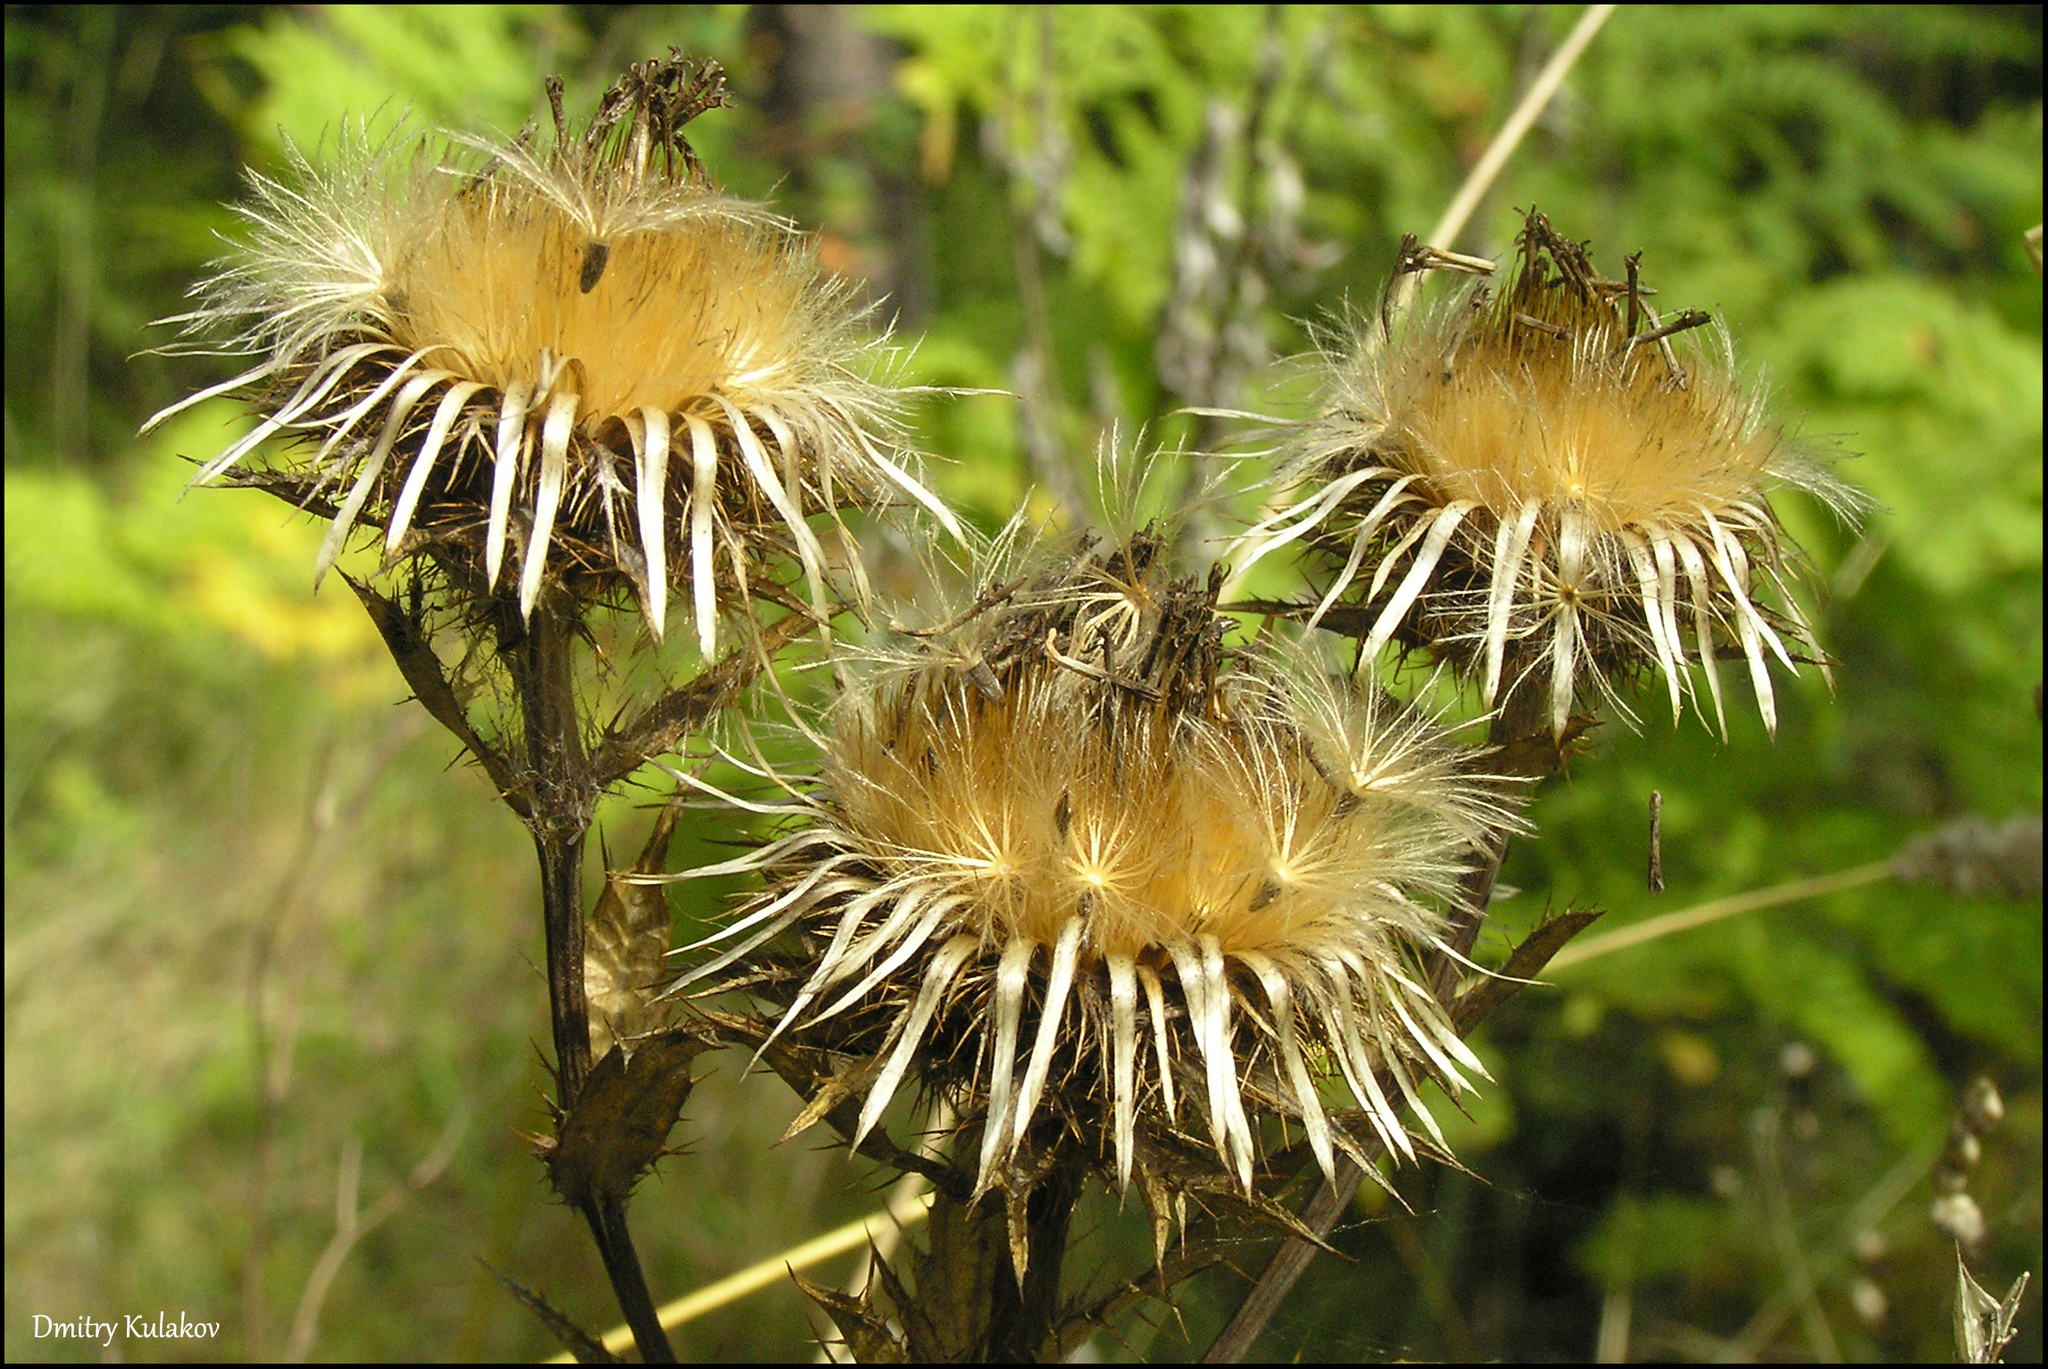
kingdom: Plantae
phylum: Tracheophyta
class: Magnoliopsida
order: Asterales
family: Asteraceae
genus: Carlina
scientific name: Carlina biebersteinii
